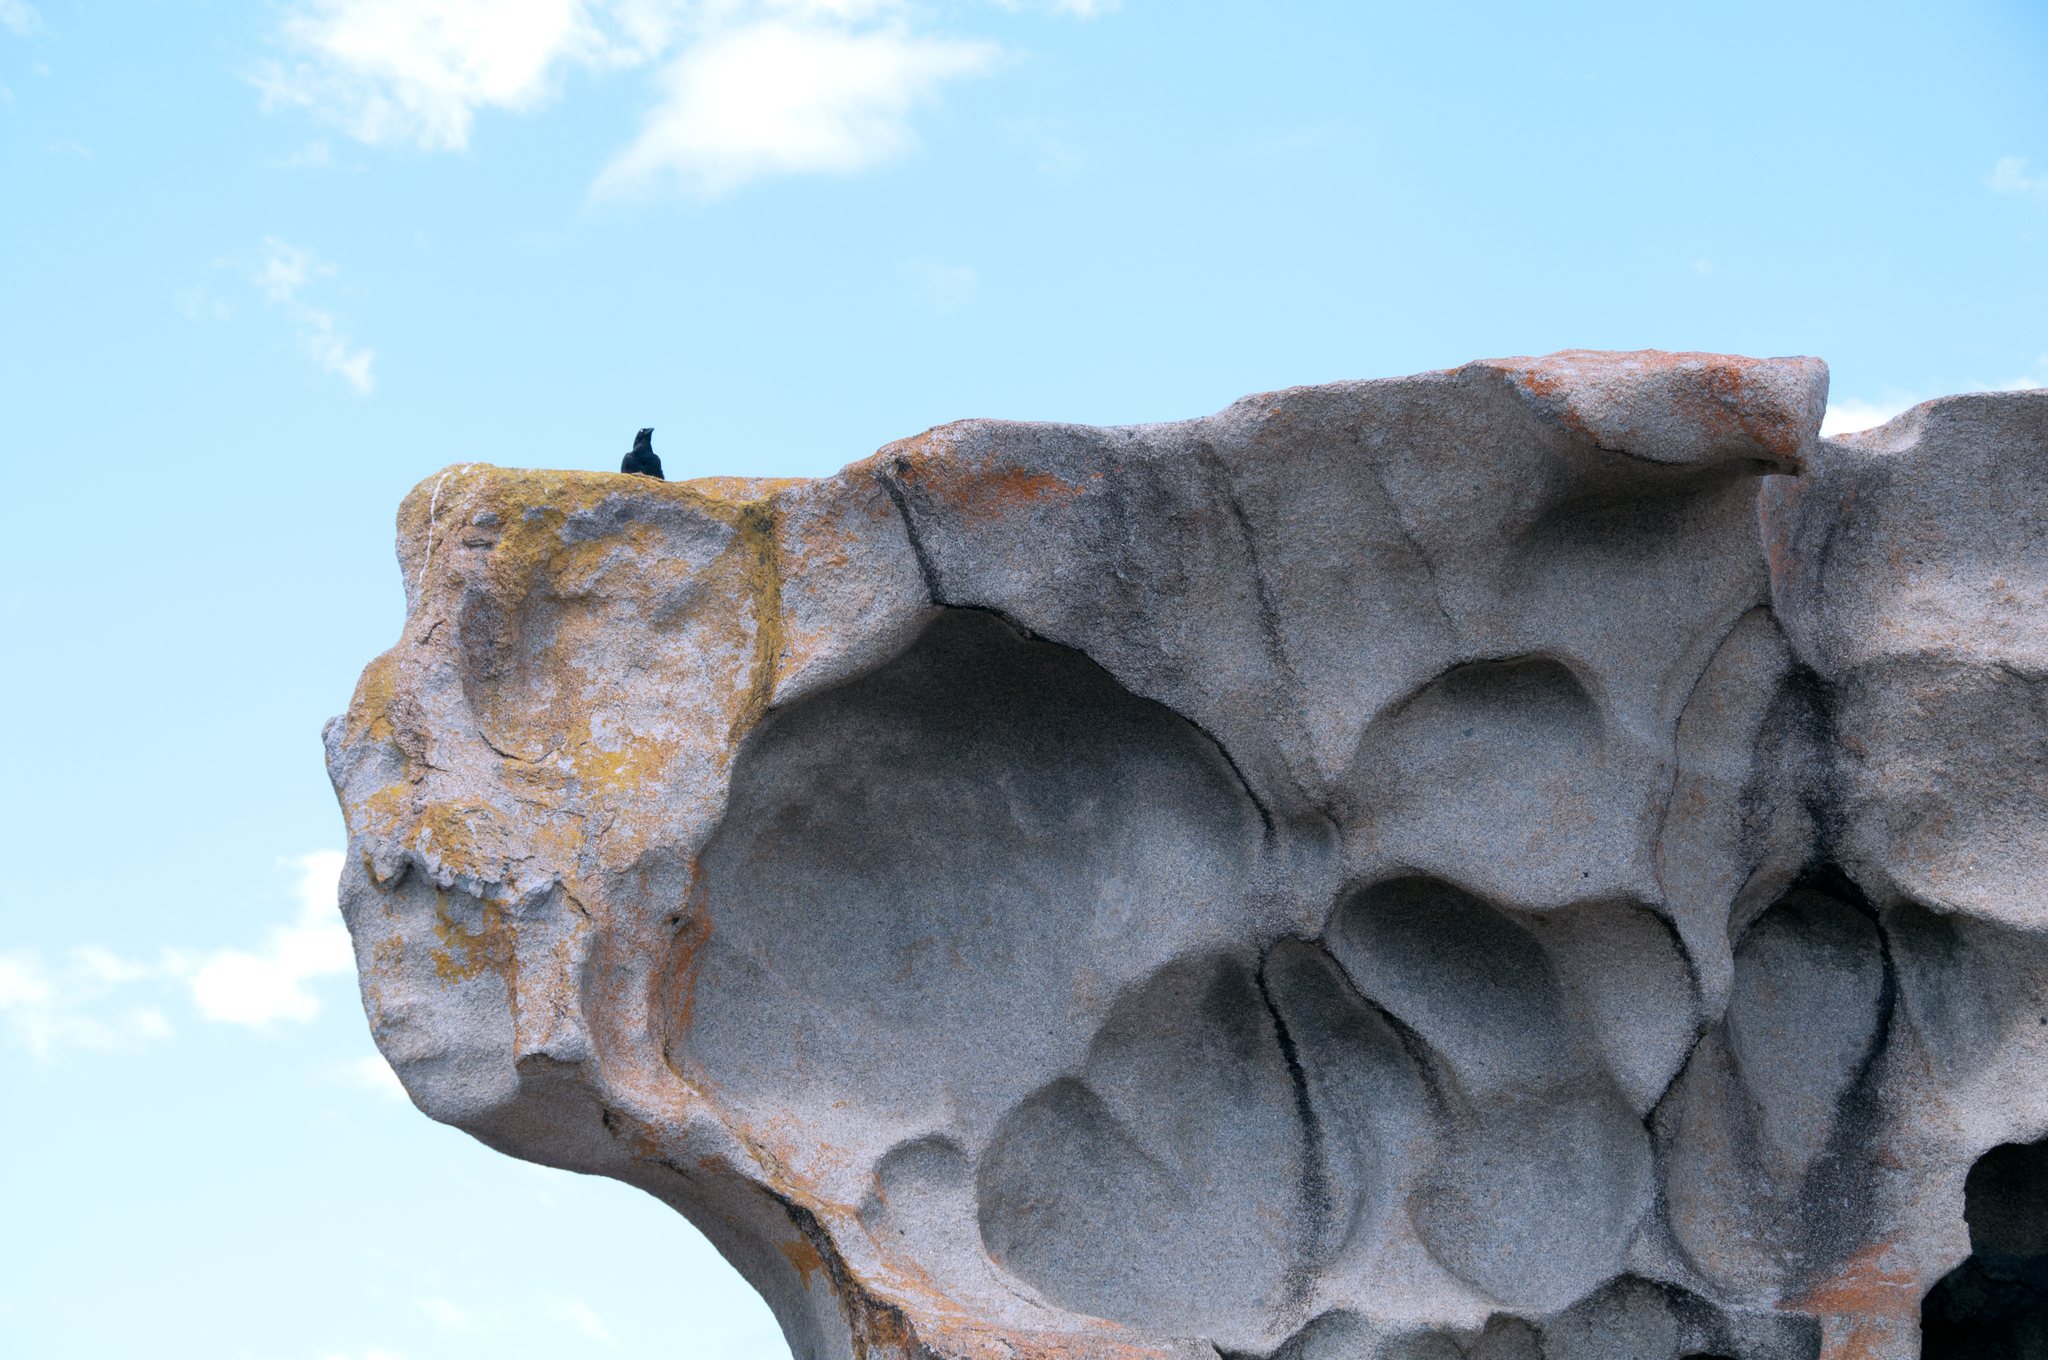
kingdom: Animalia
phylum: Chordata
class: Aves
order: Passeriformes
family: Corvidae
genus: Corvus
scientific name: Corvus coronoides
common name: Australian raven
